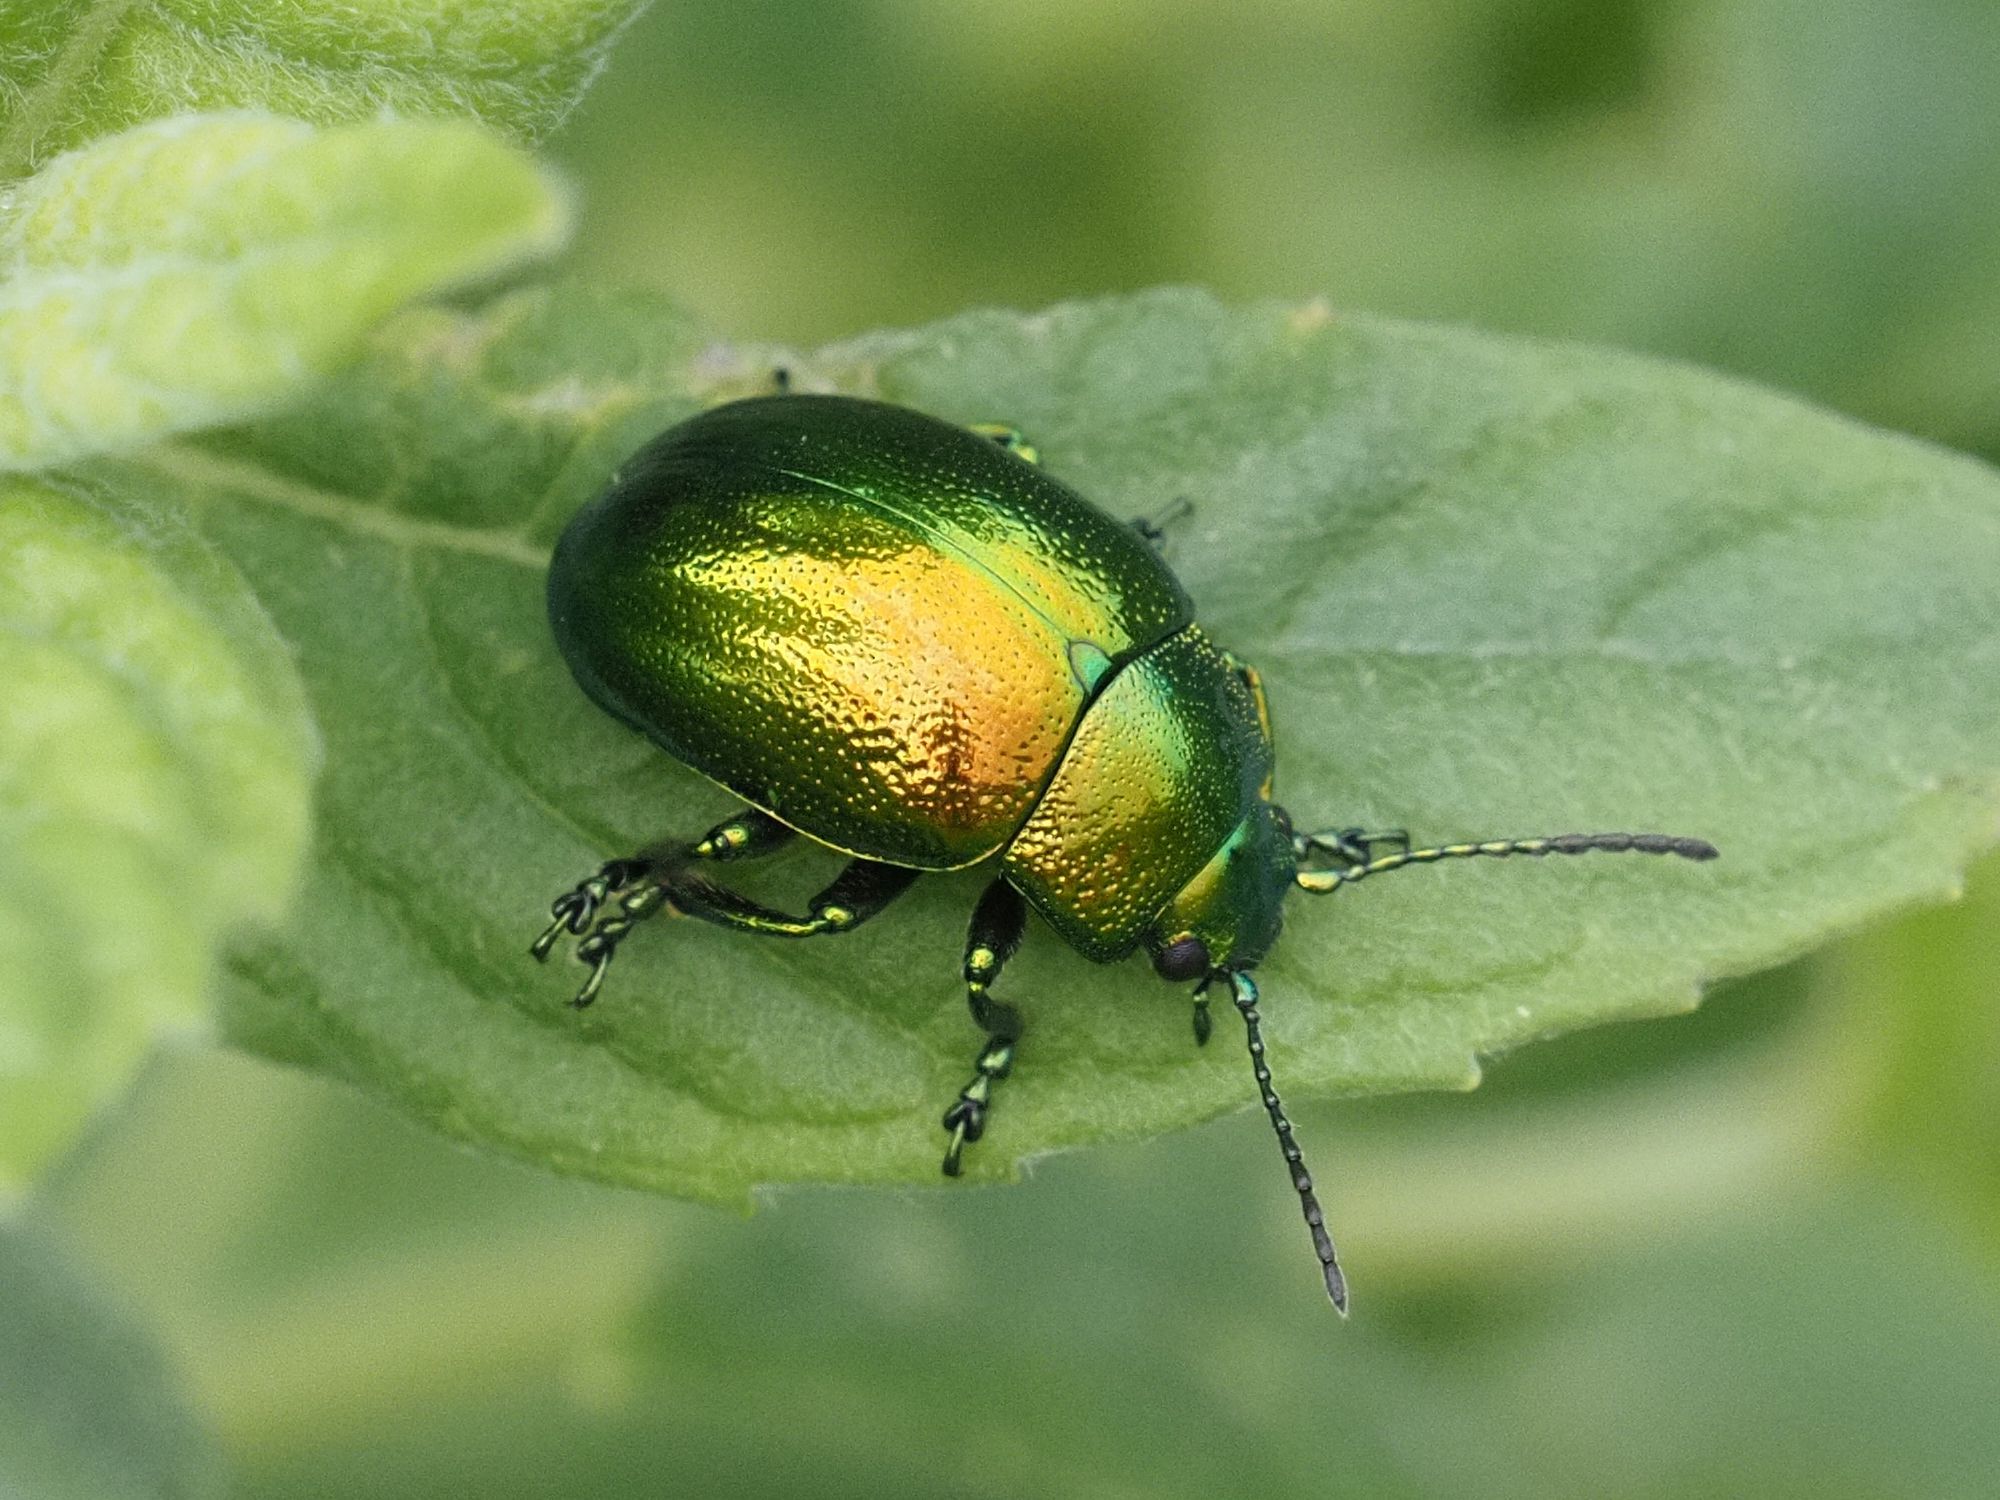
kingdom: Animalia
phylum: Arthropoda
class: Insecta
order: Coleoptera
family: Chrysomelidae
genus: Chrysolina
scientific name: Chrysolina herbacea
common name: Mint leaf beatle
